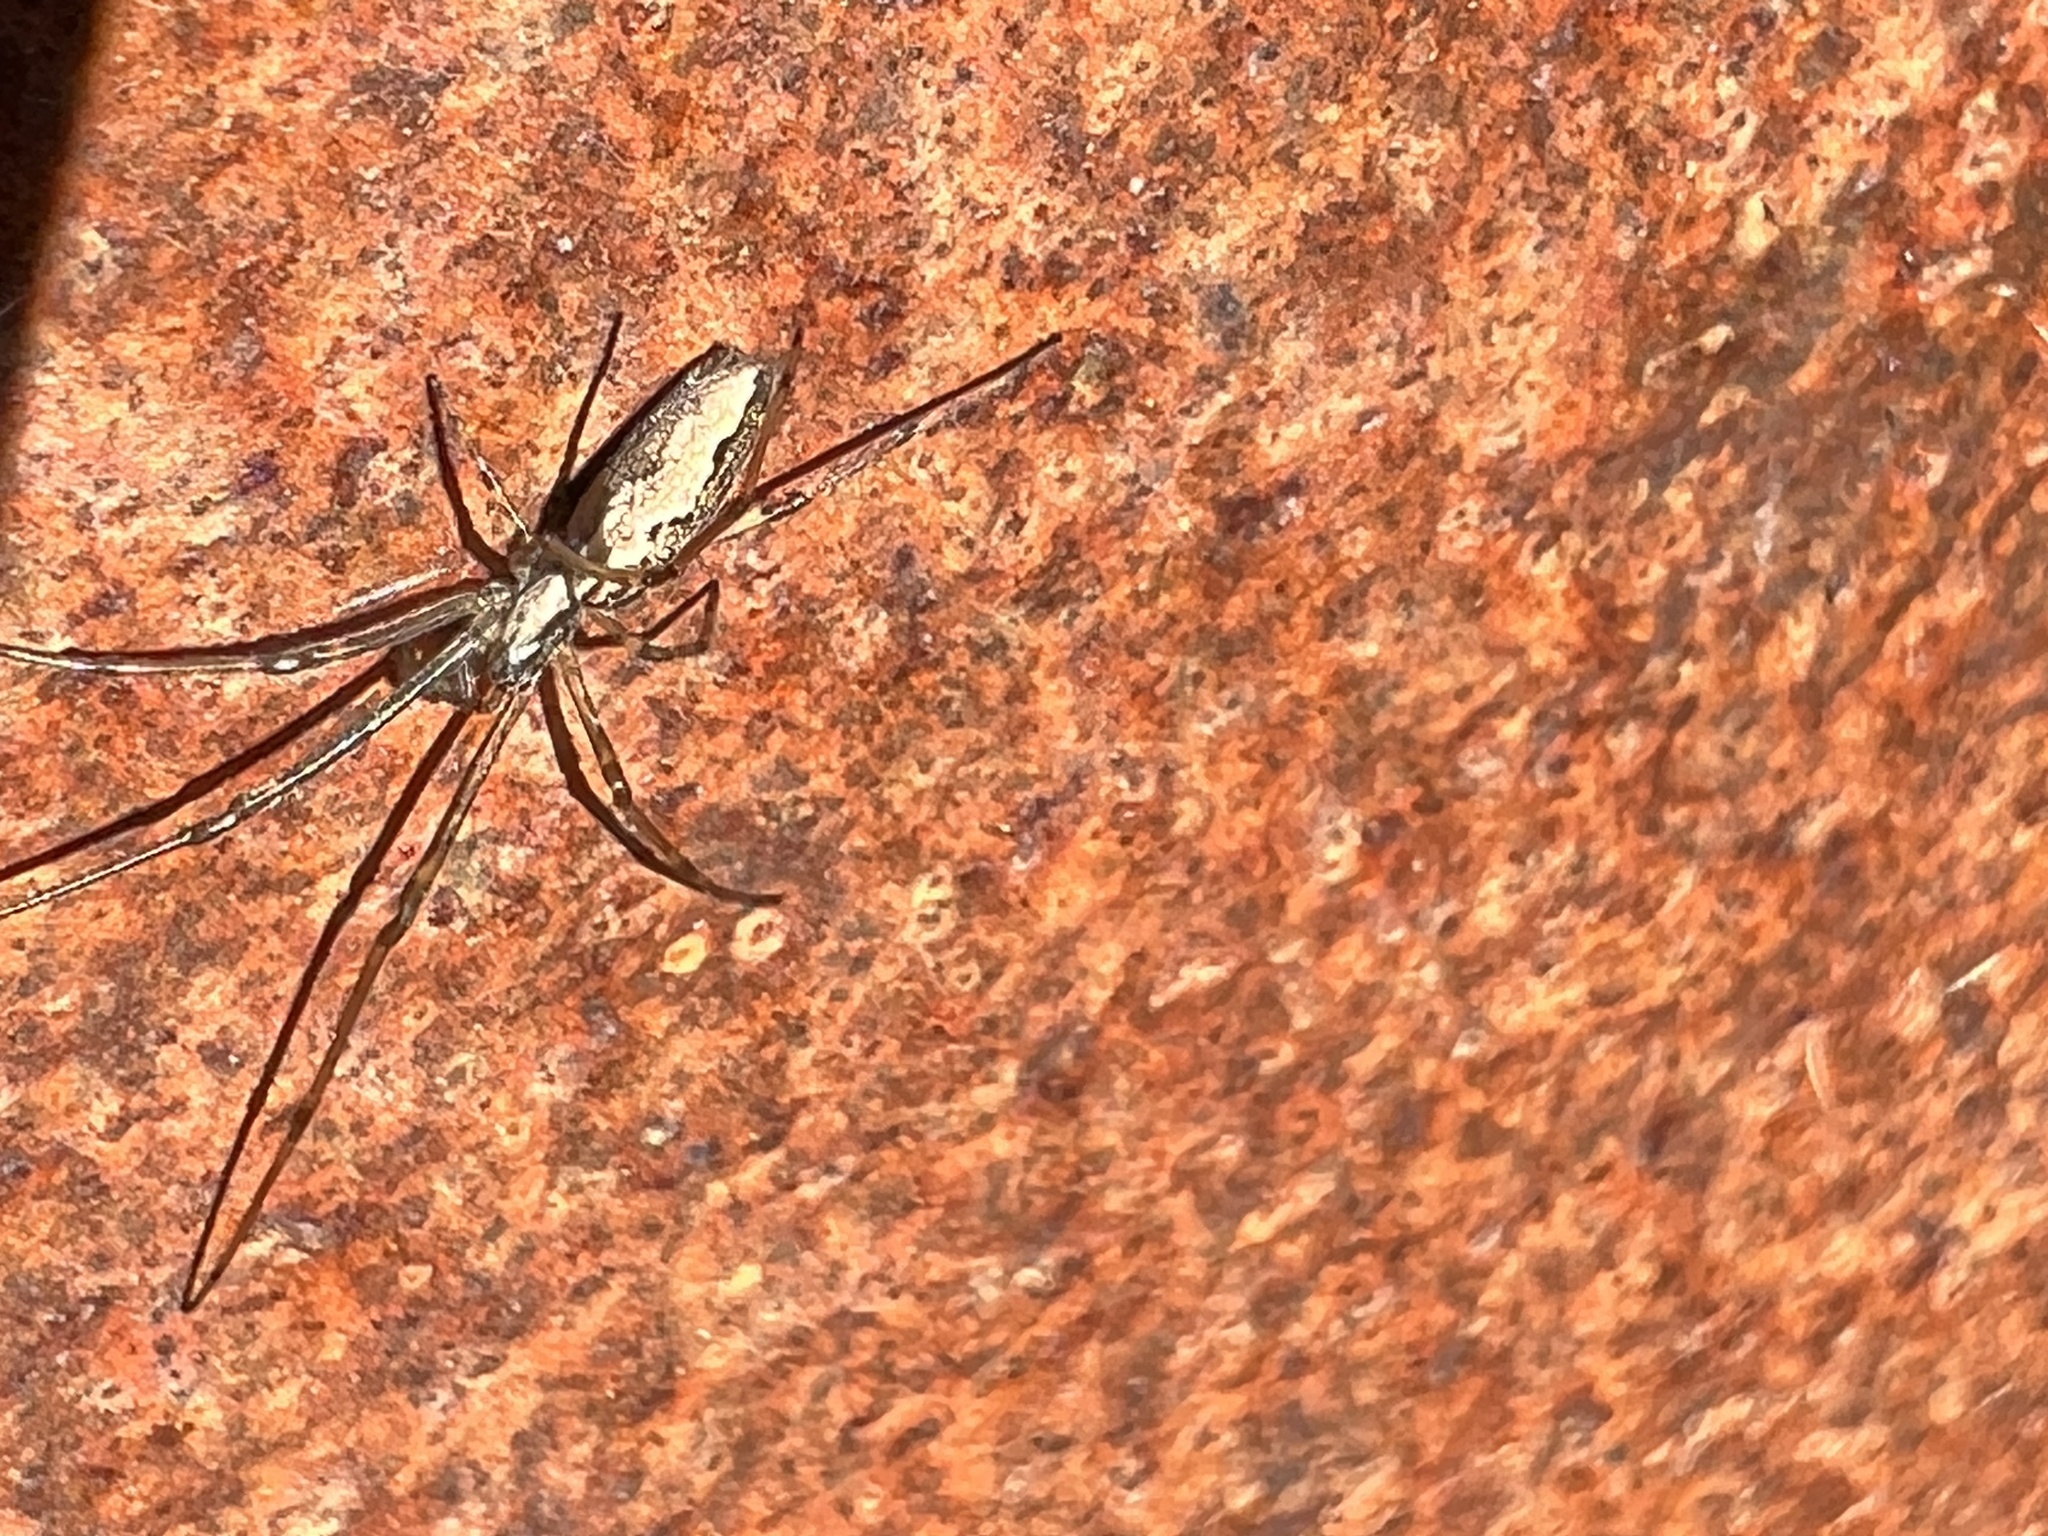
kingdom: Animalia
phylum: Arthropoda
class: Arachnida
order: Araneae
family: Tetragnathidae
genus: Tetragnatha
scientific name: Tetragnatha versicolor
